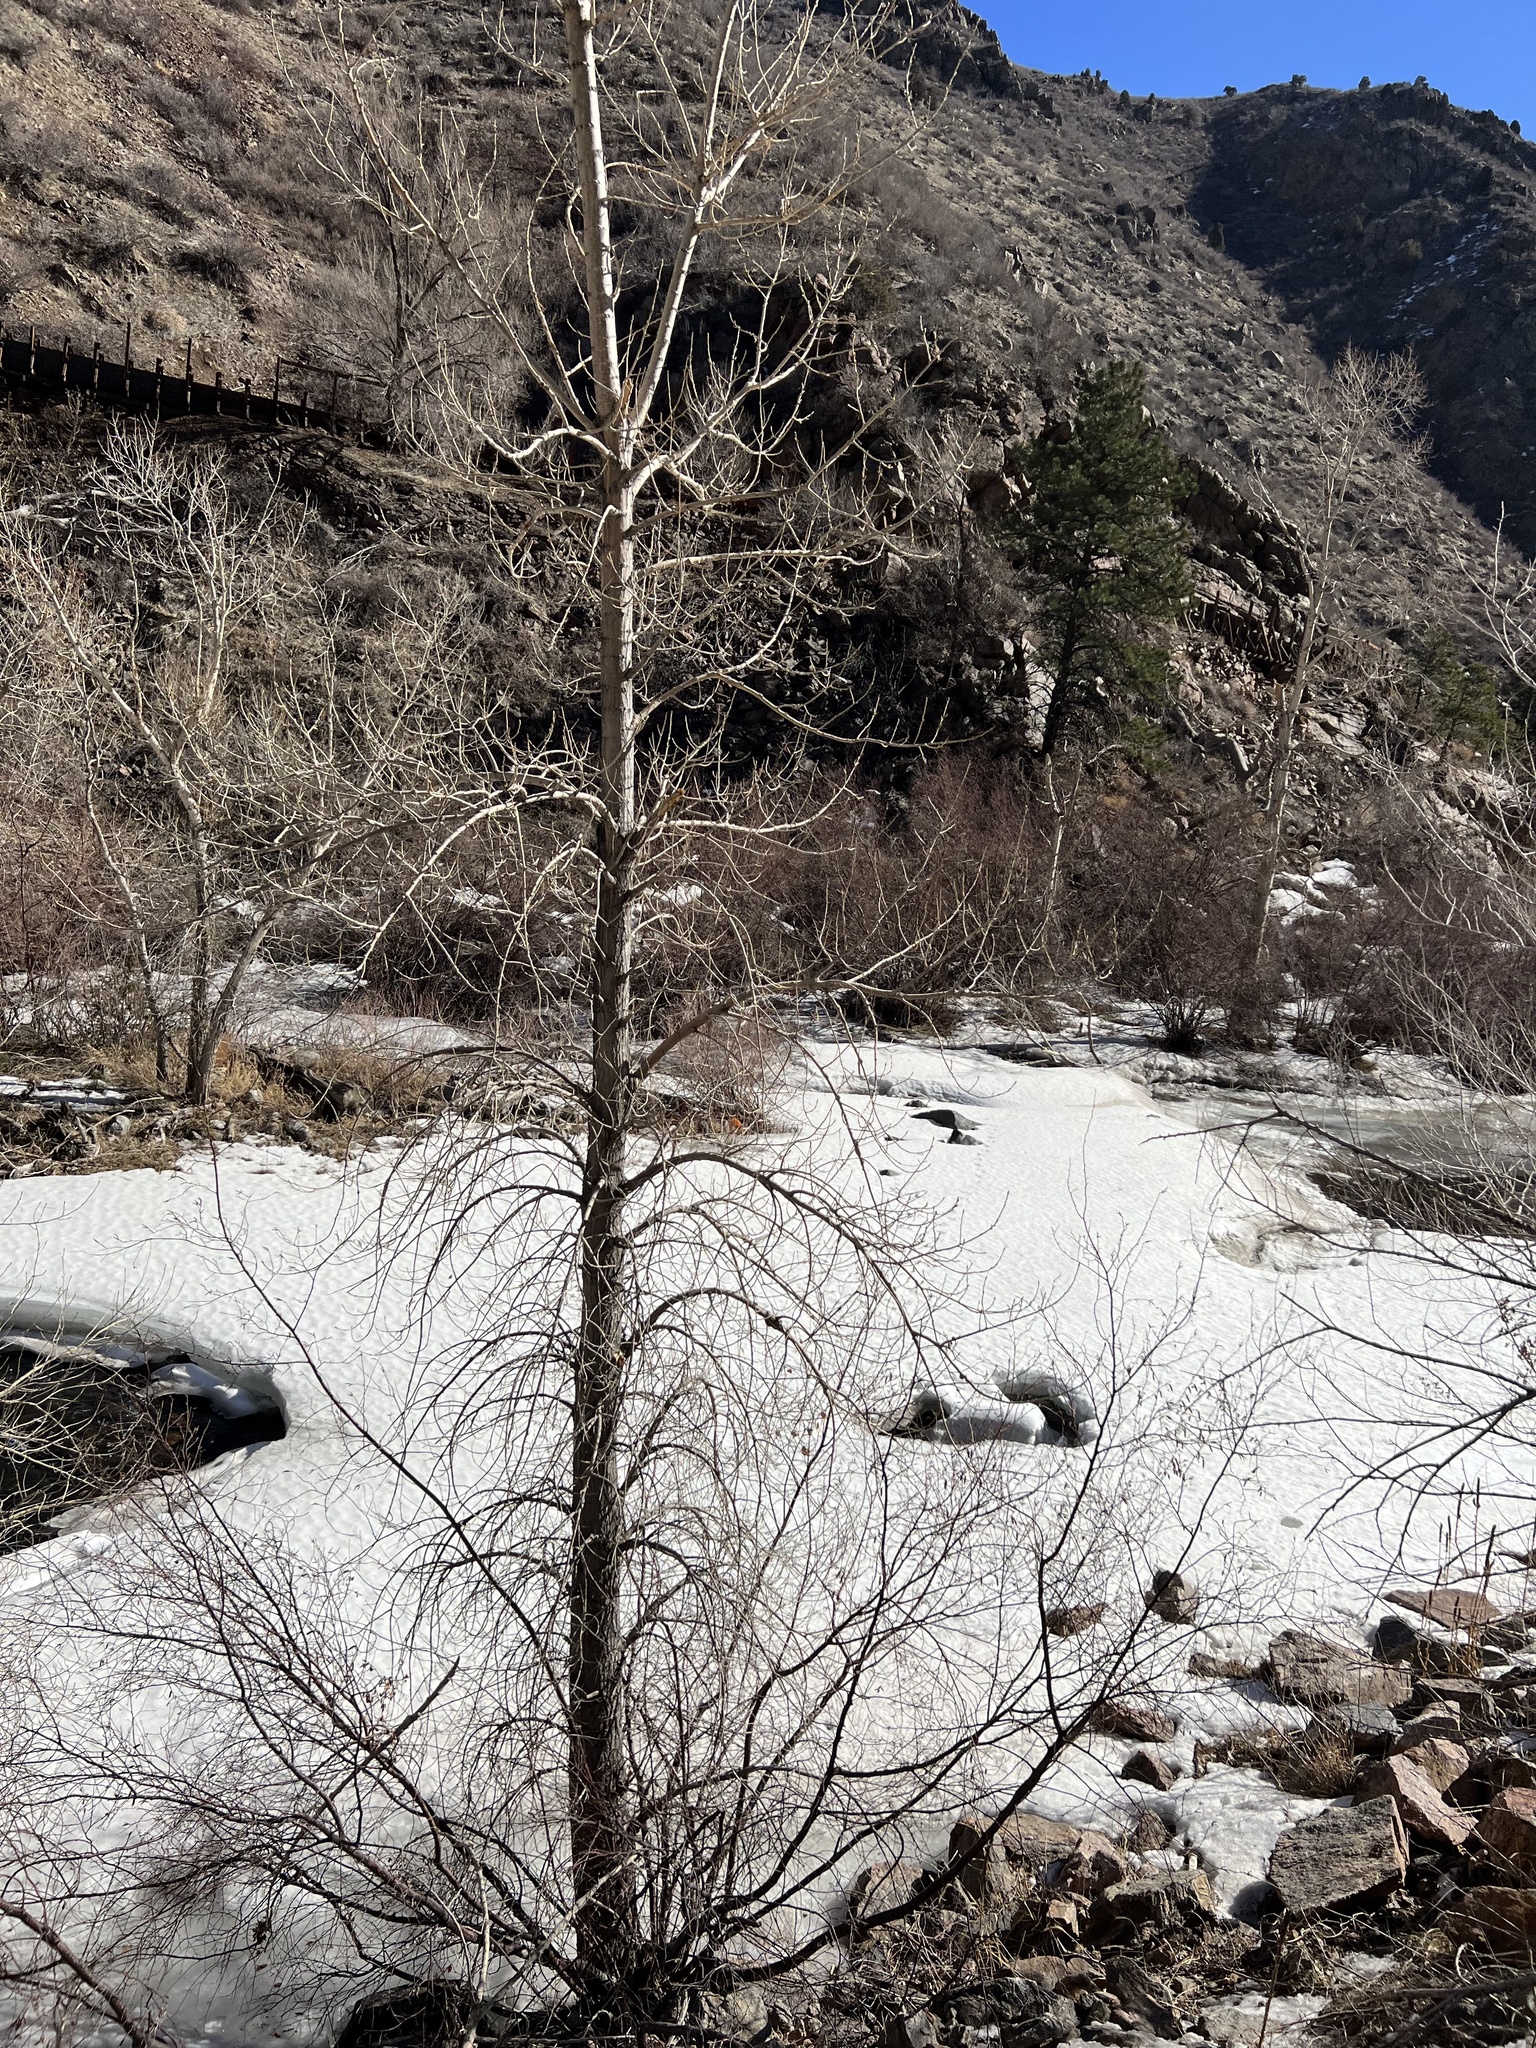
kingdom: Plantae
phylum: Tracheophyta
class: Magnoliopsida
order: Malpighiales
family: Salicaceae
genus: Populus
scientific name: Populus angustifolia
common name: Willow cottonwood
